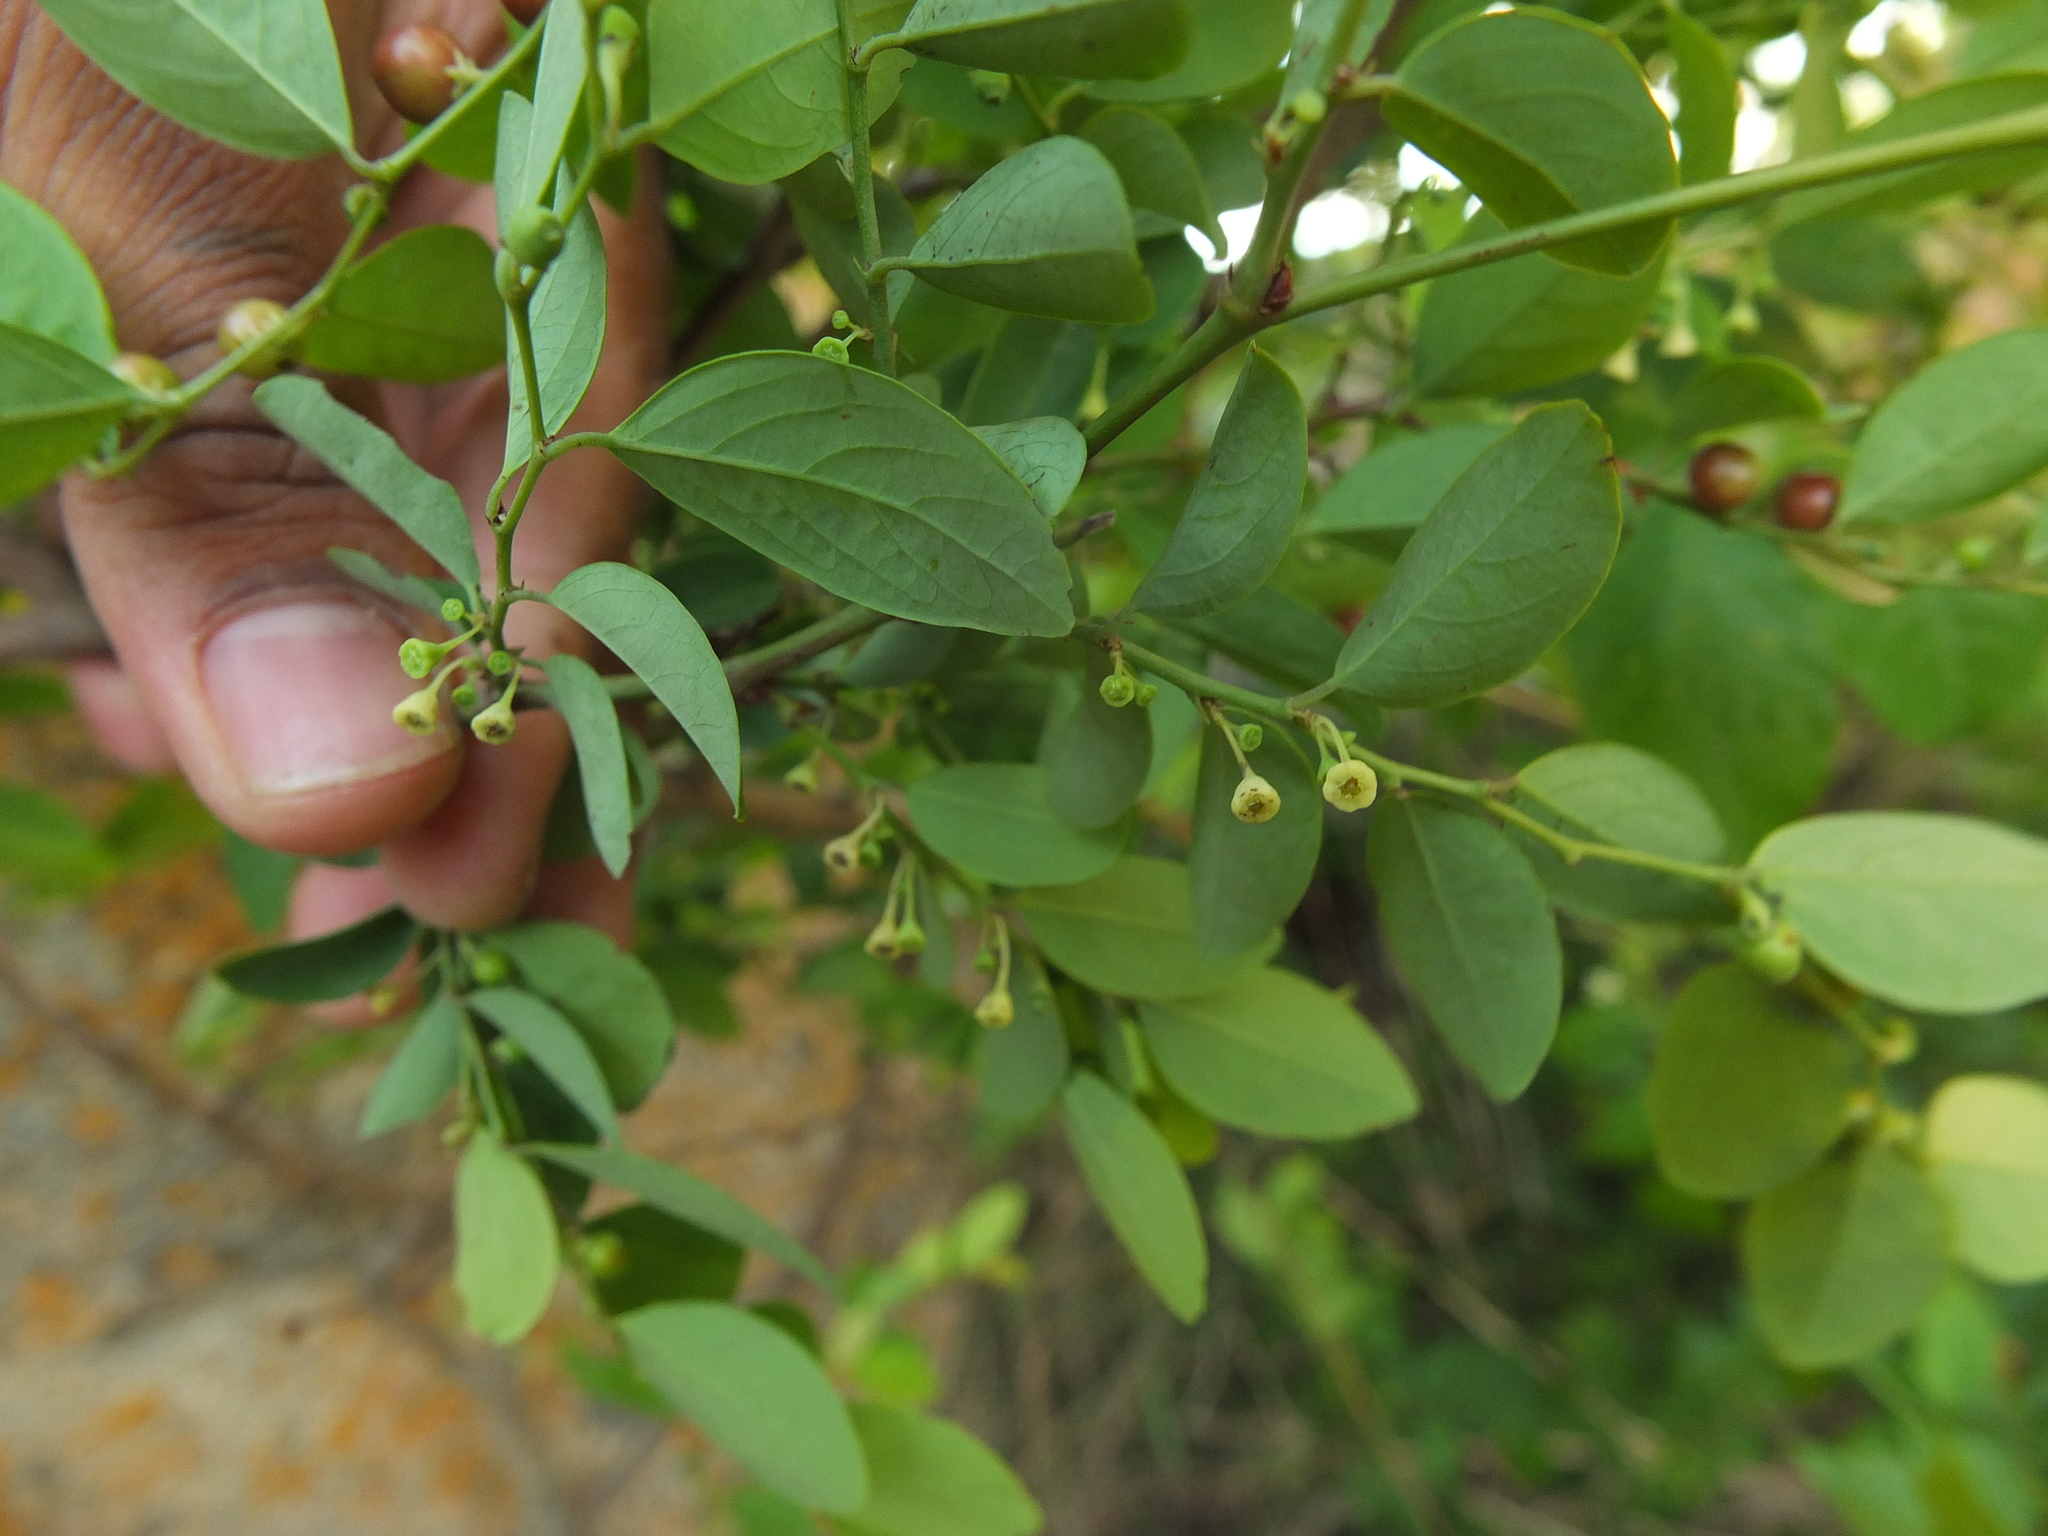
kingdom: Plantae
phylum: Tracheophyta
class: Magnoliopsida
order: Malpighiales
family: Phyllanthaceae
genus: Breynia
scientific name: Breynia vitis-idaea
